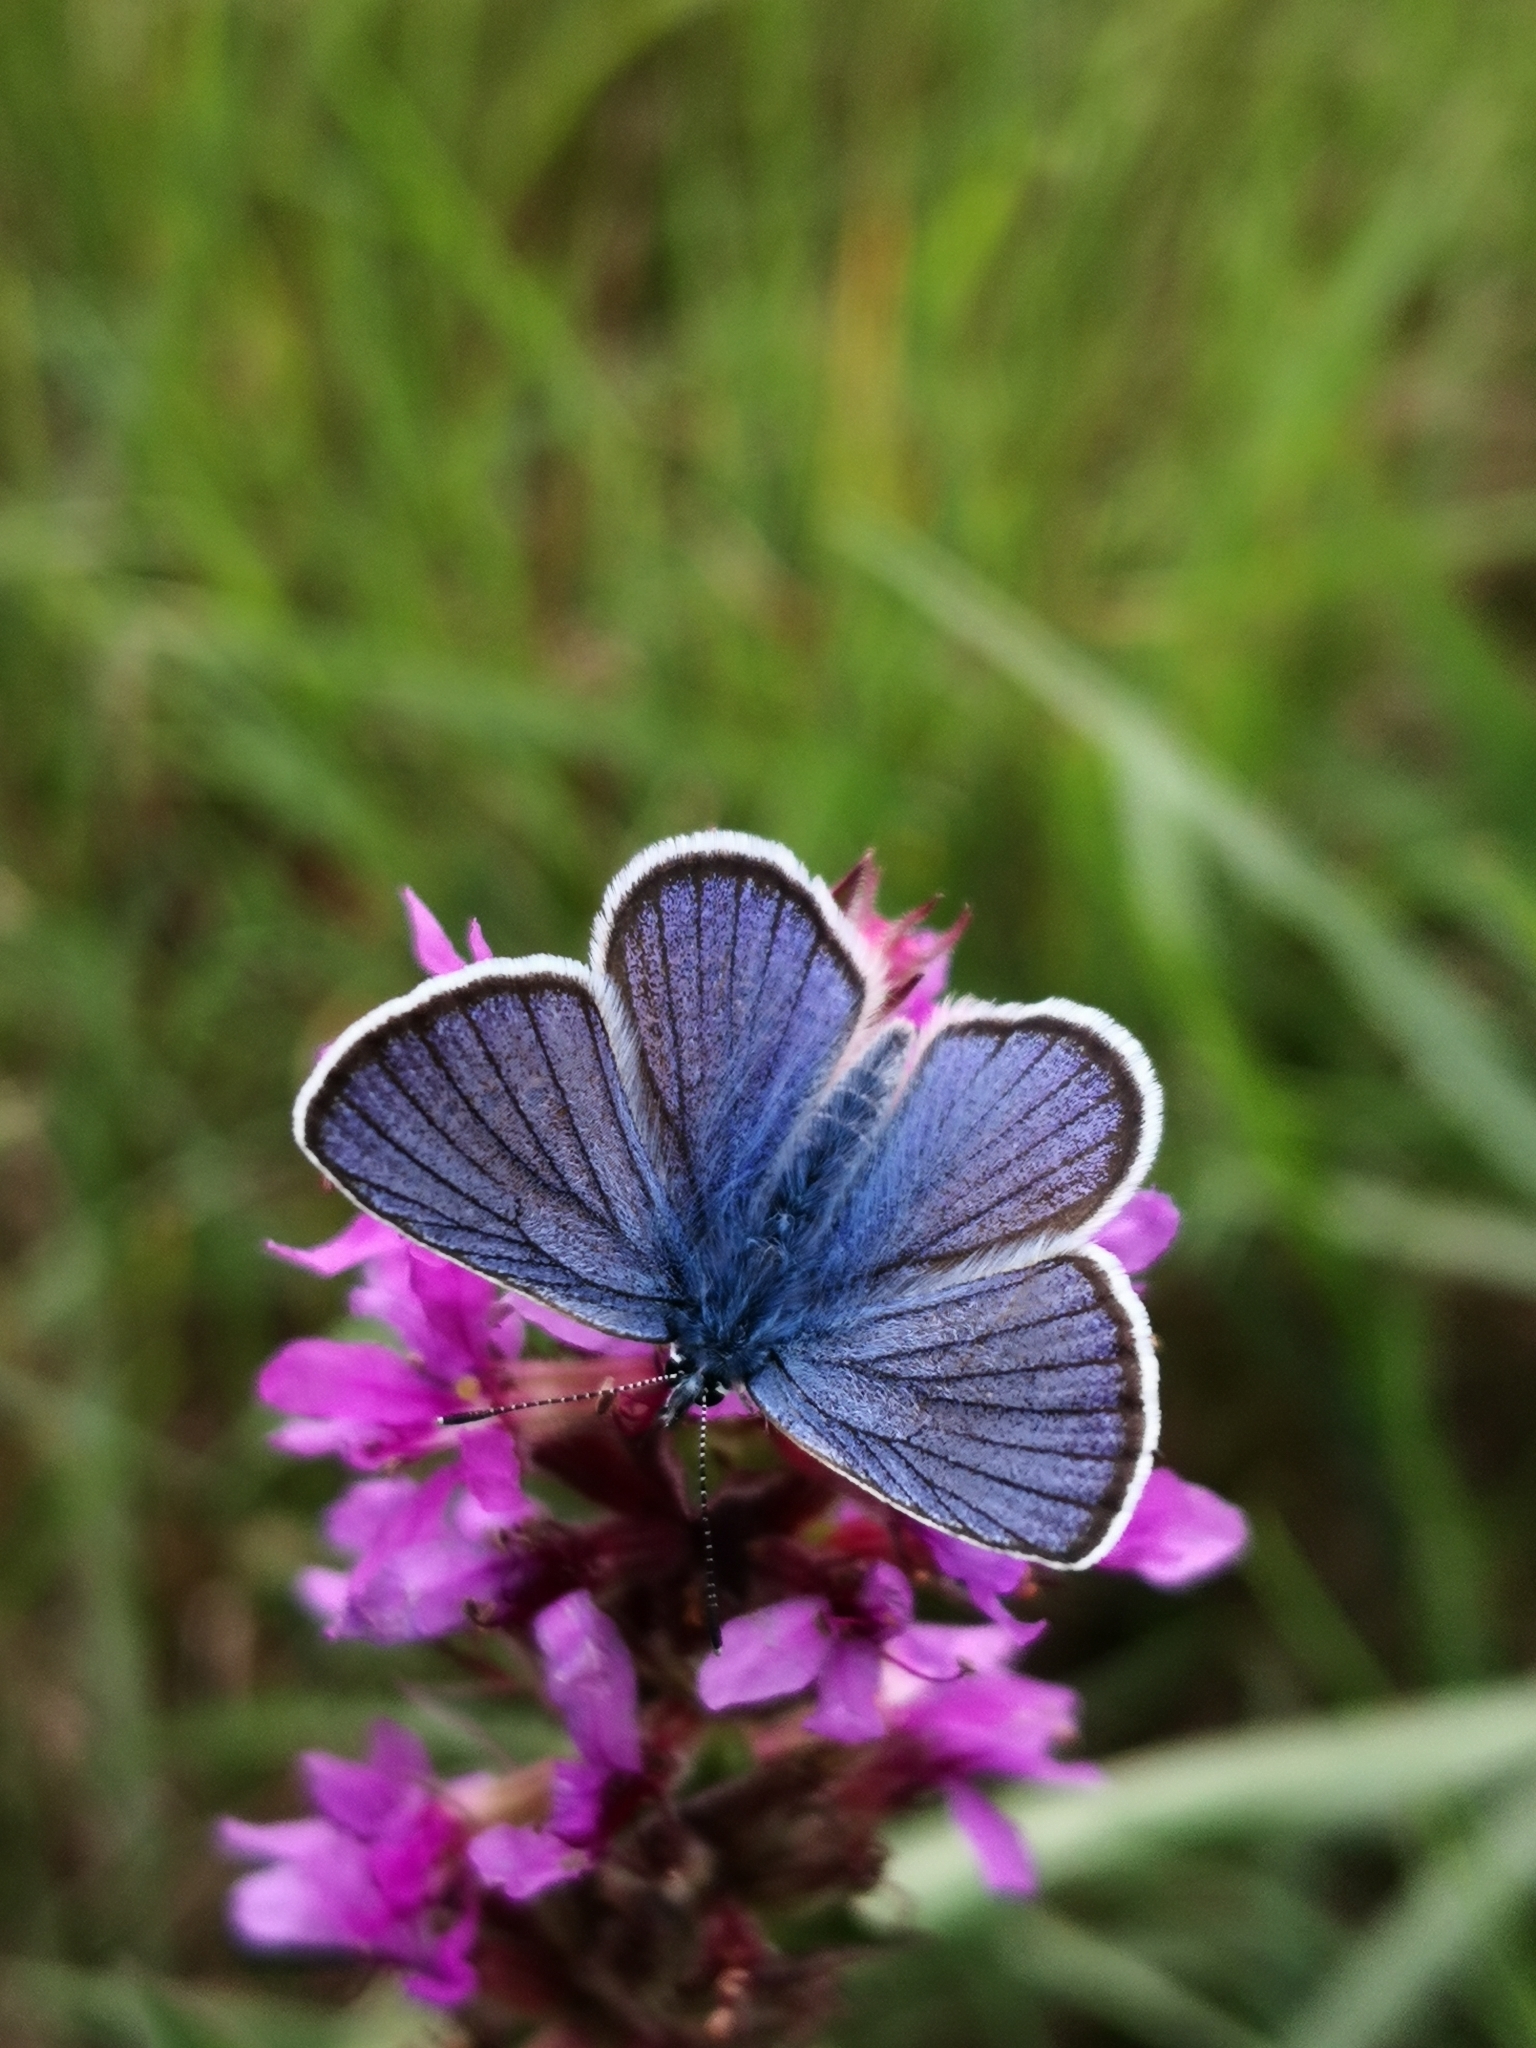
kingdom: Animalia
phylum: Arthropoda
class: Insecta
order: Lepidoptera
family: Lycaenidae
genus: Cyaniris
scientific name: Cyaniris semiargus
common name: Mazarine blue
